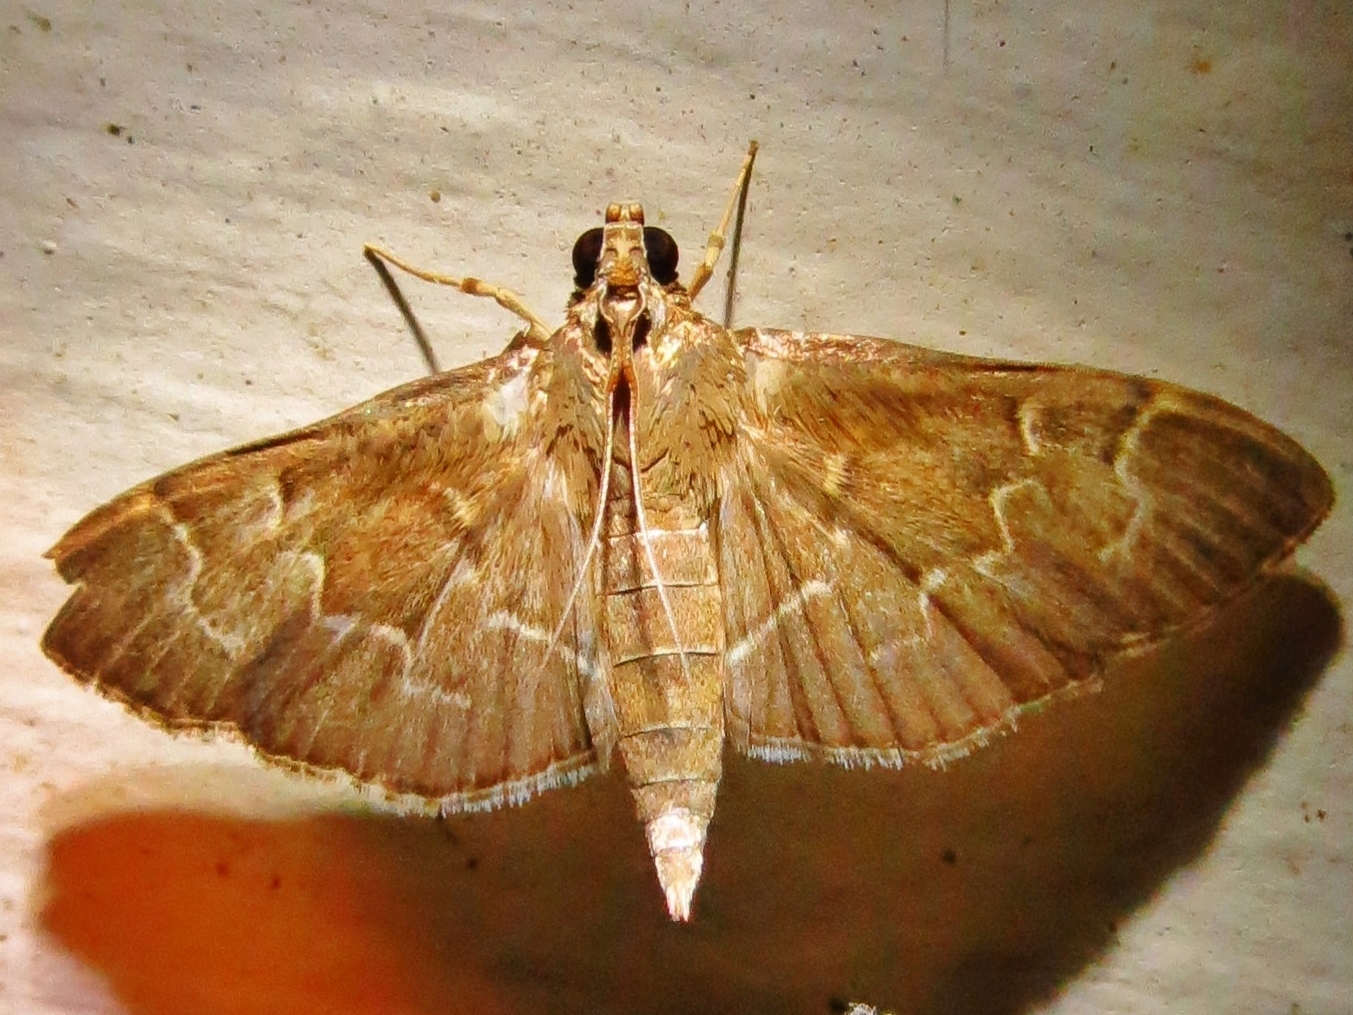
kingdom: Animalia
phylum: Arthropoda
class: Insecta
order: Lepidoptera
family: Crambidae
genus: Pilocrocis
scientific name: Pilocrocis ramentalis
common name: Scraped pilocrocis
